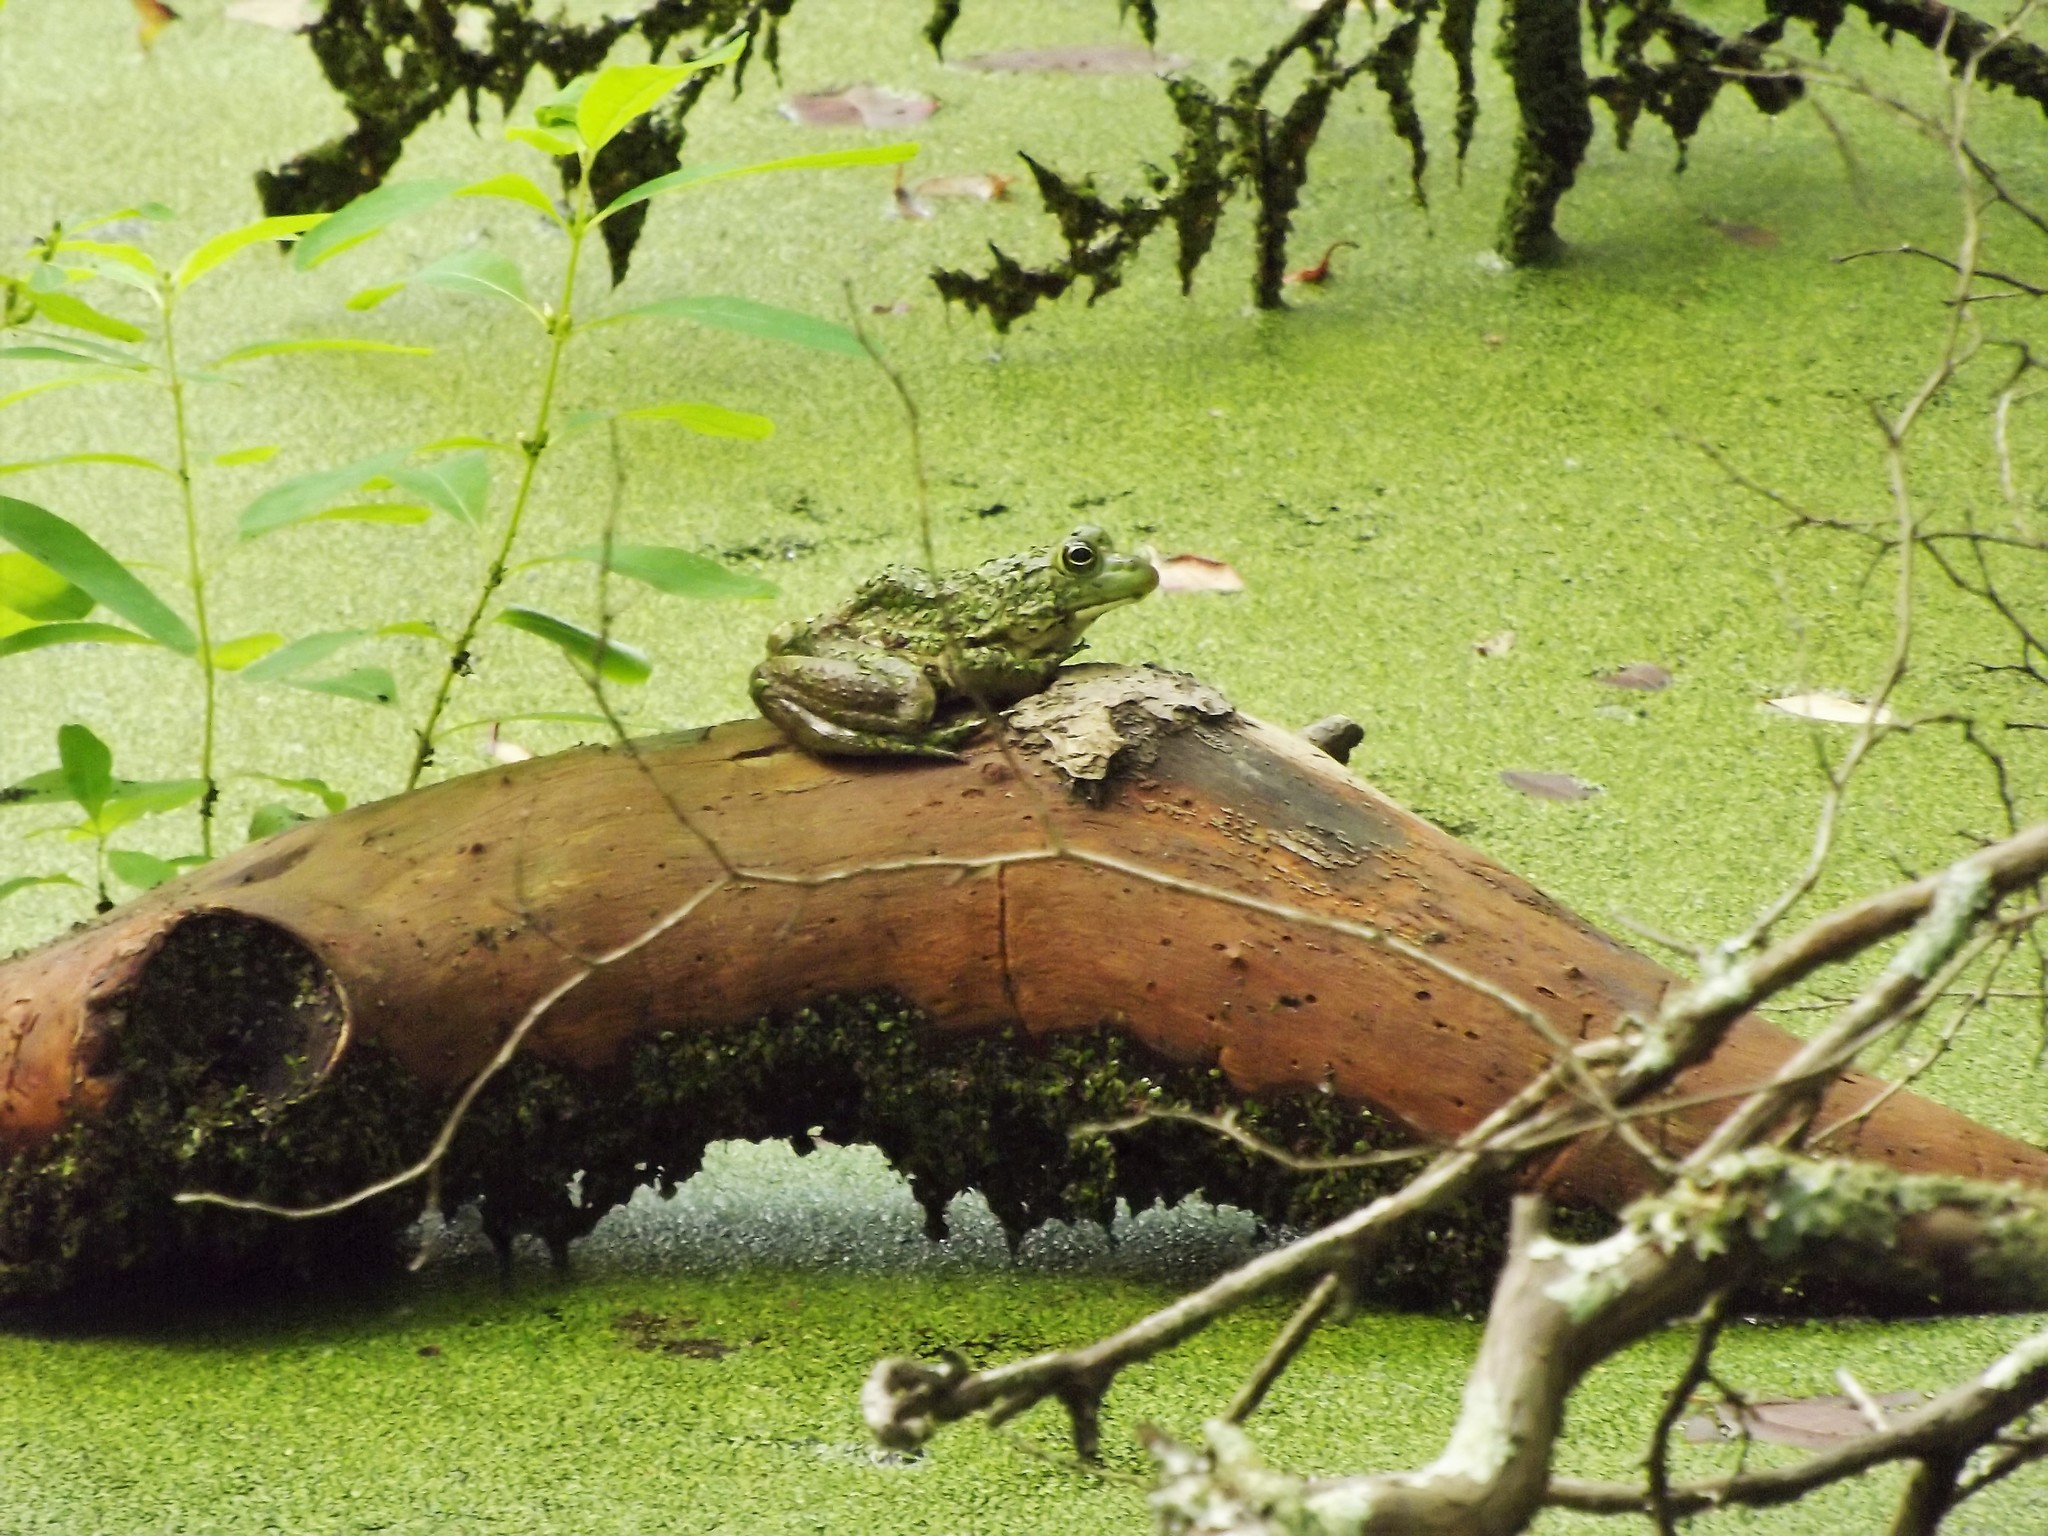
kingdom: Animalia
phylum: Chordata
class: Amphibia
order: Anura
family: Ranidae
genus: Lithobates
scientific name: Lithobates catesbeianus
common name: American bullfrog
